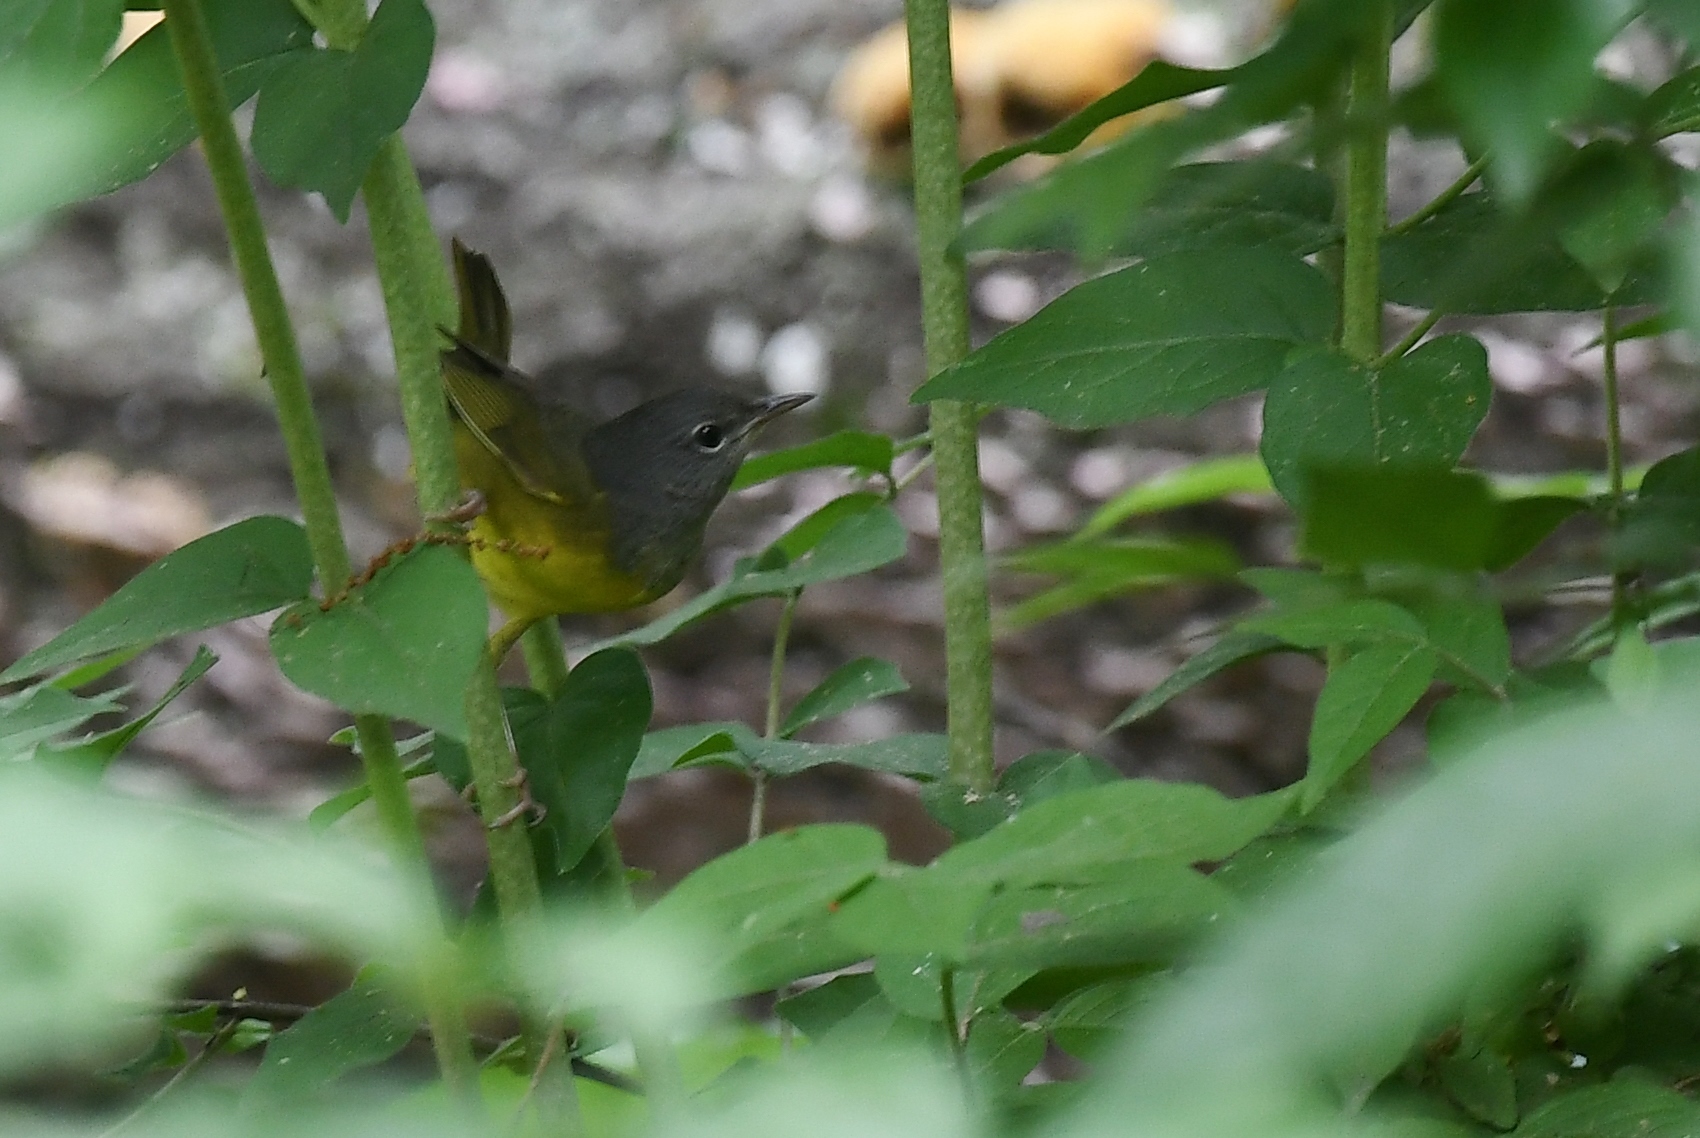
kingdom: Animalia
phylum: Chordata
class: Aves
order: Passeriformes
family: Parulidae
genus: Geothlypis
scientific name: Geothlypis philadelphia
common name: Mourning warbler
